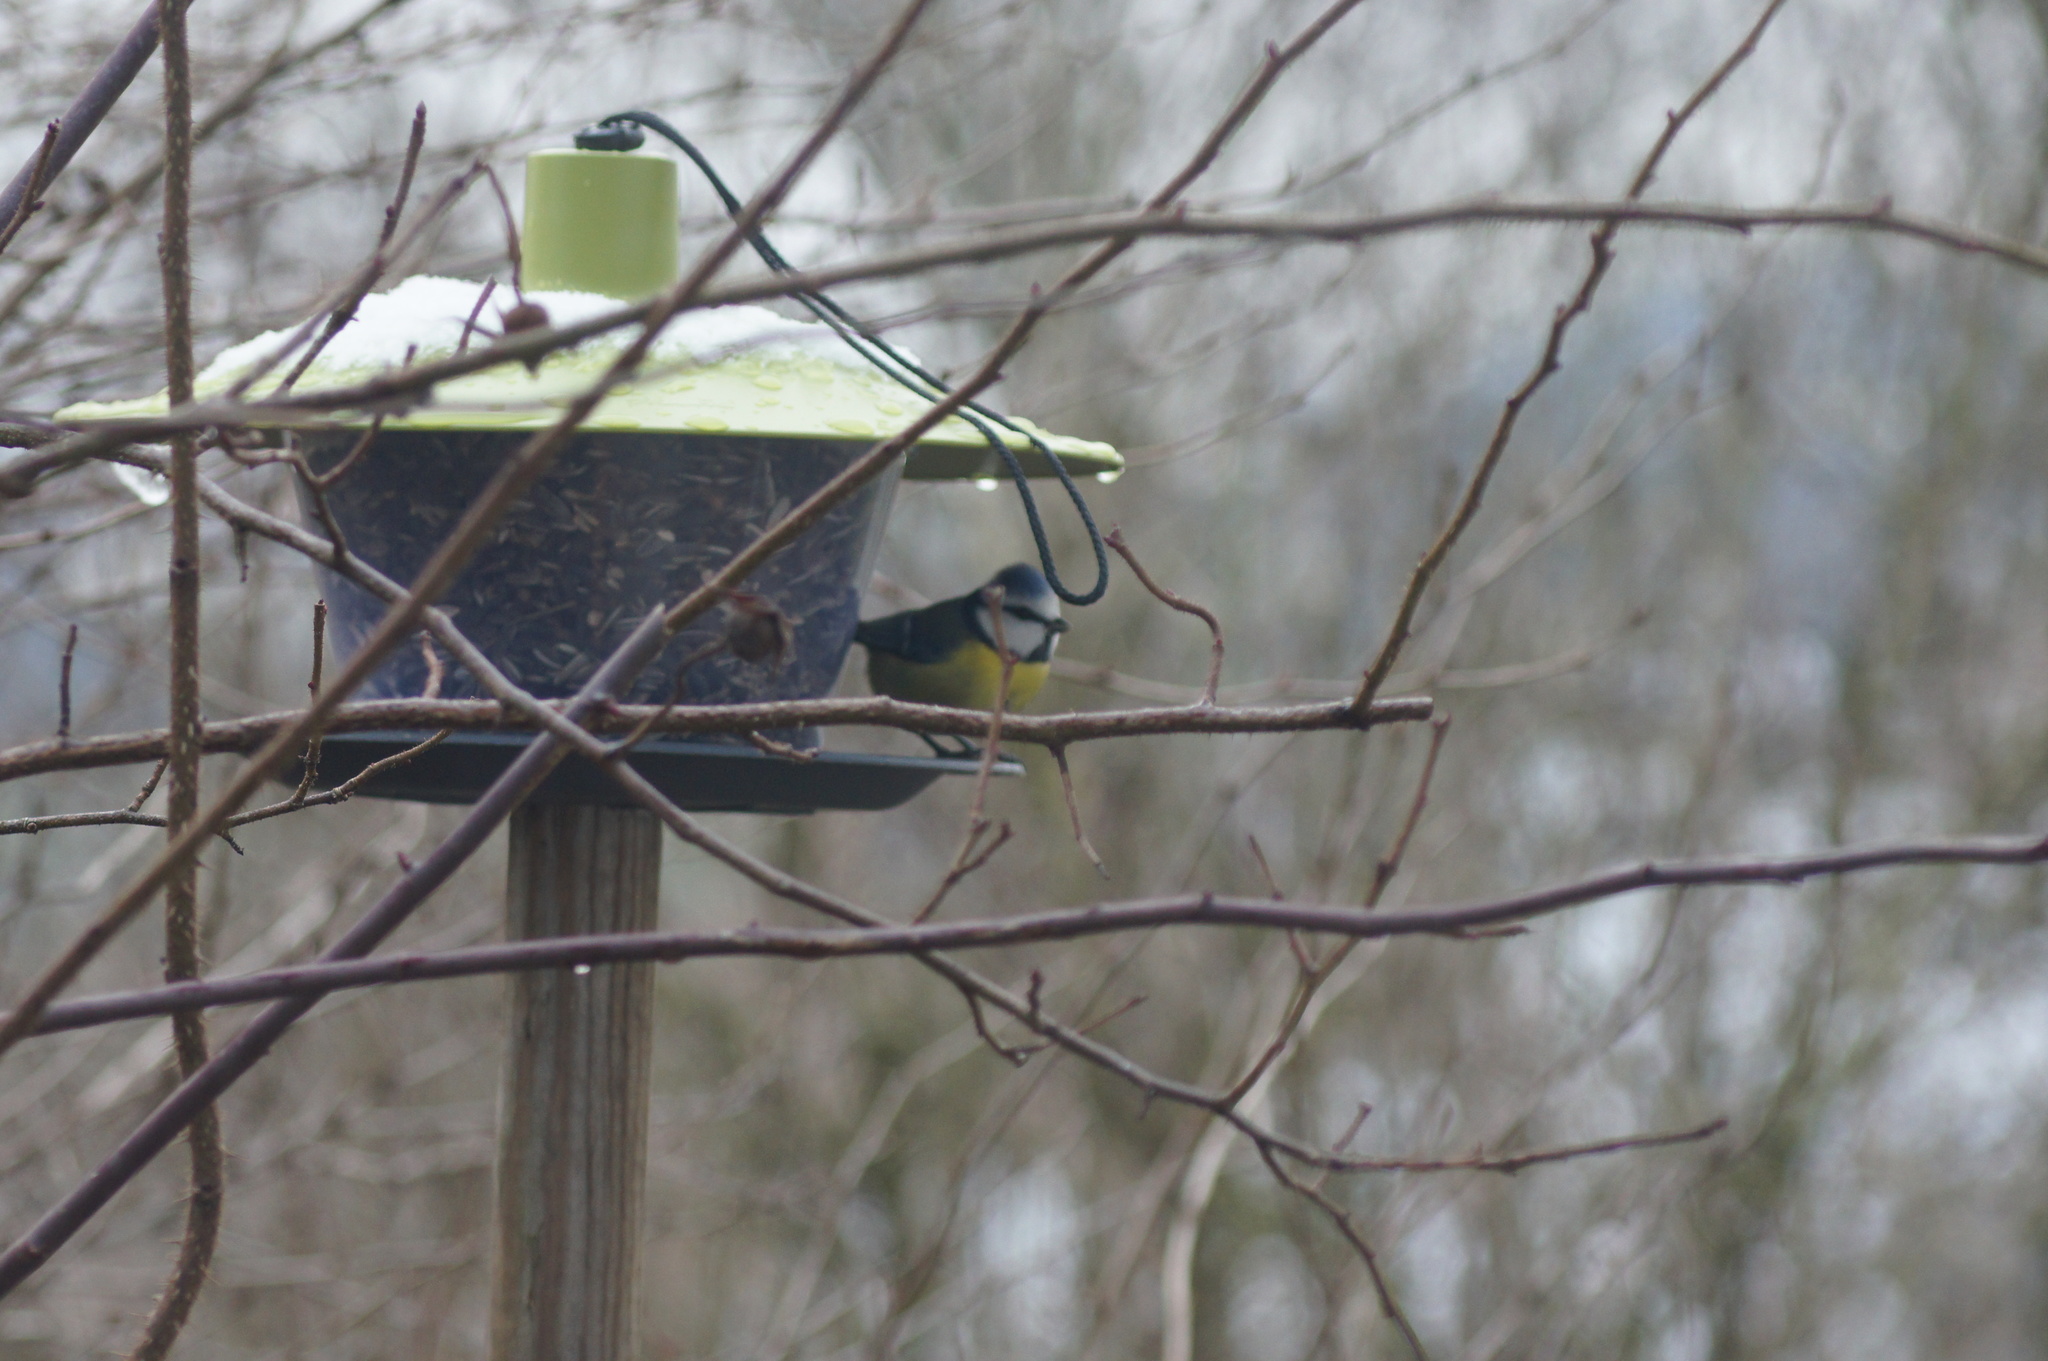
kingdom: Animalia
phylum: Chordata
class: Aves
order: Passeriformes
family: Paridae
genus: Cyanistes
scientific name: Cyanistes caeruleus
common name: Eurasian blue tit
